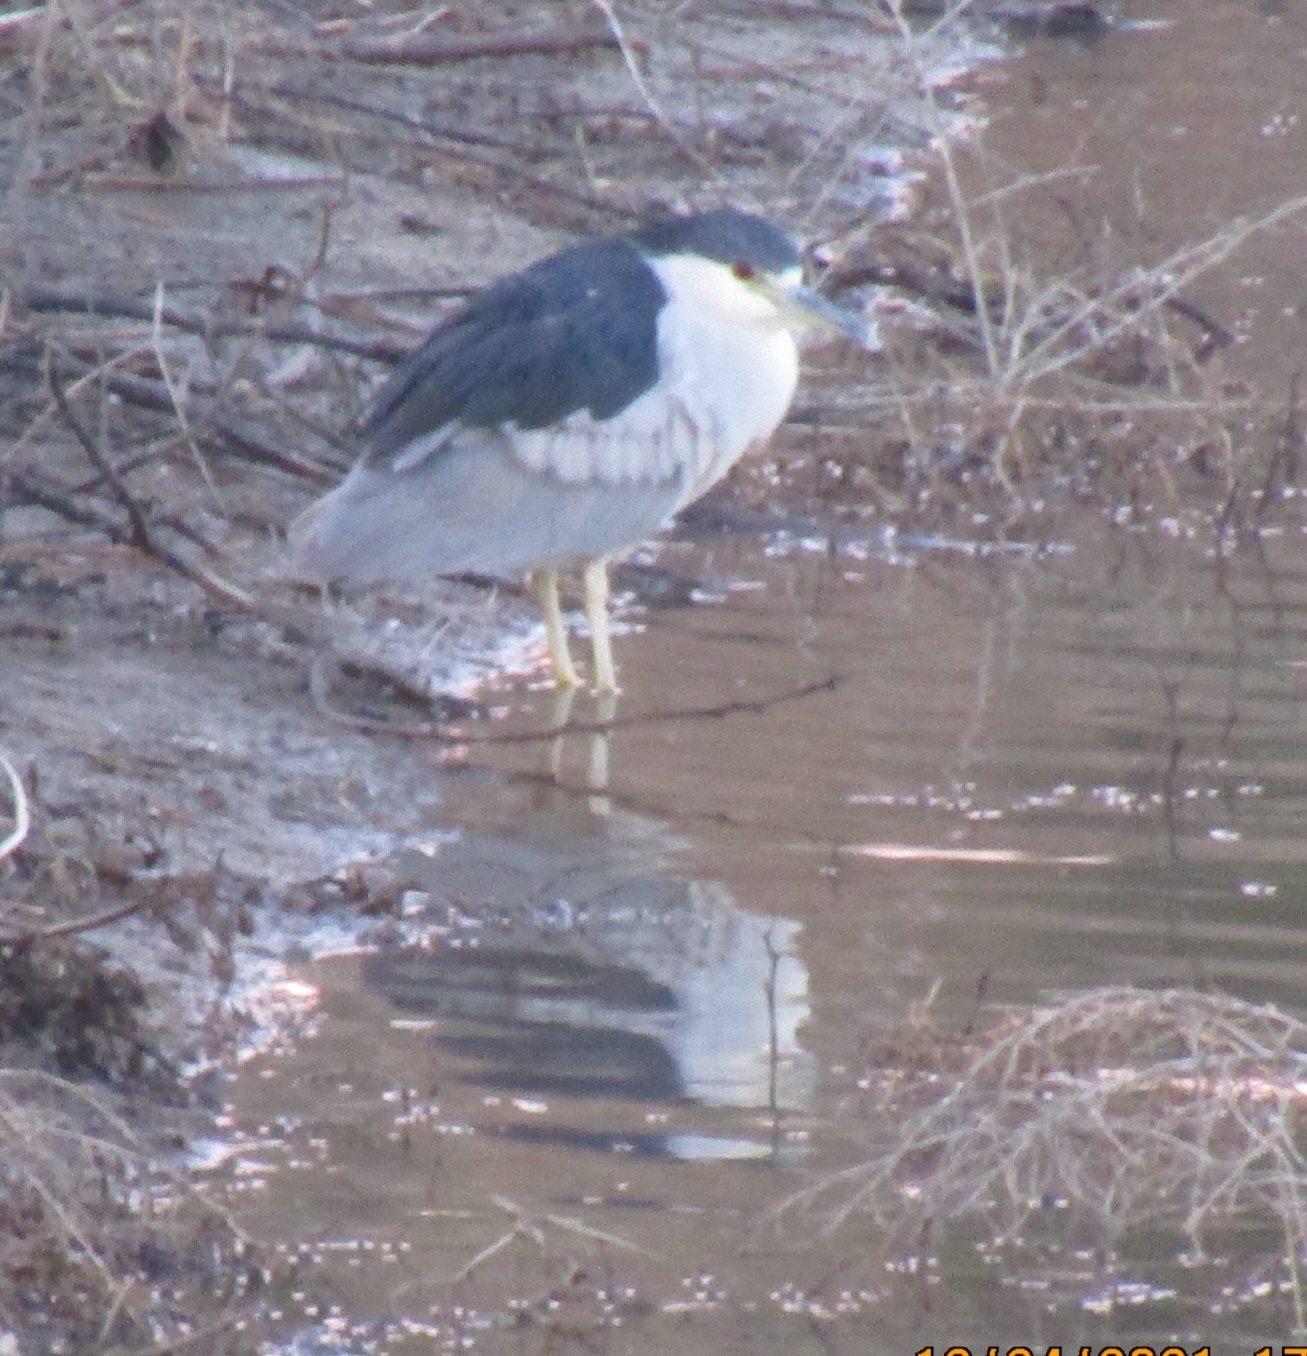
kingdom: Animalia
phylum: Chordata
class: Aves
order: Pelecaniformes
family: Ardeidae
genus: Nycticorax
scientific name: Nycticorax nycticorax
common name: Black-crowned night heron
